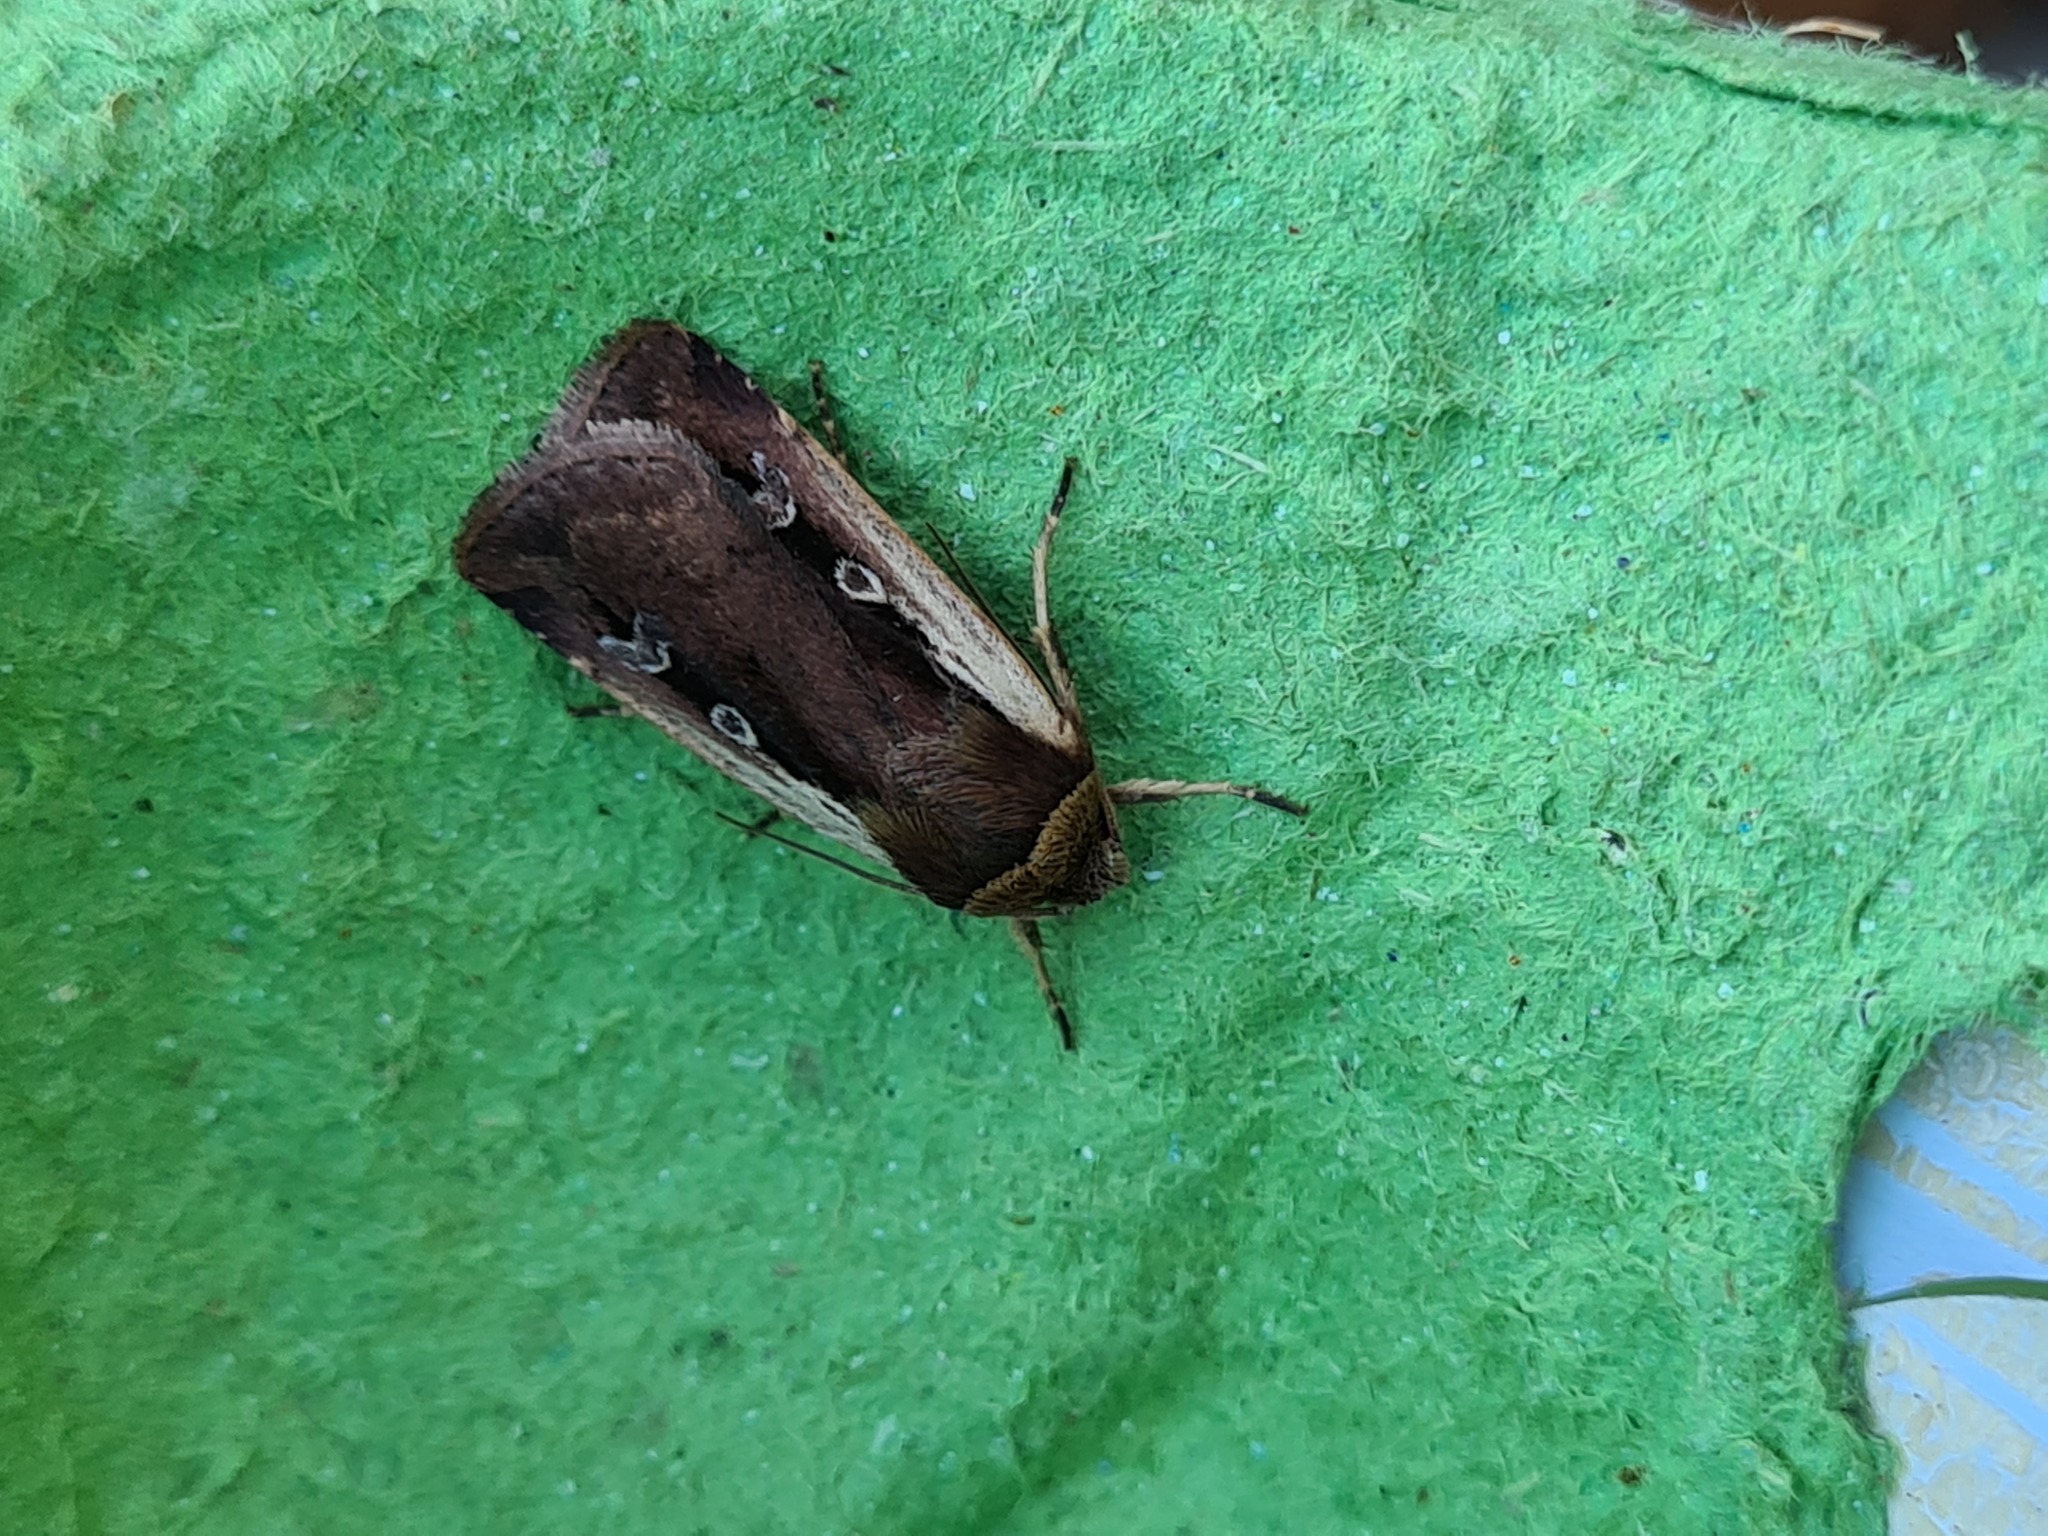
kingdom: Animalia
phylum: Arthropoda
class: Insecta
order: Lepidoptera
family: Noctuidae
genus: Ochropleura
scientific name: Ochropleura plecta
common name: Flame shoulder
